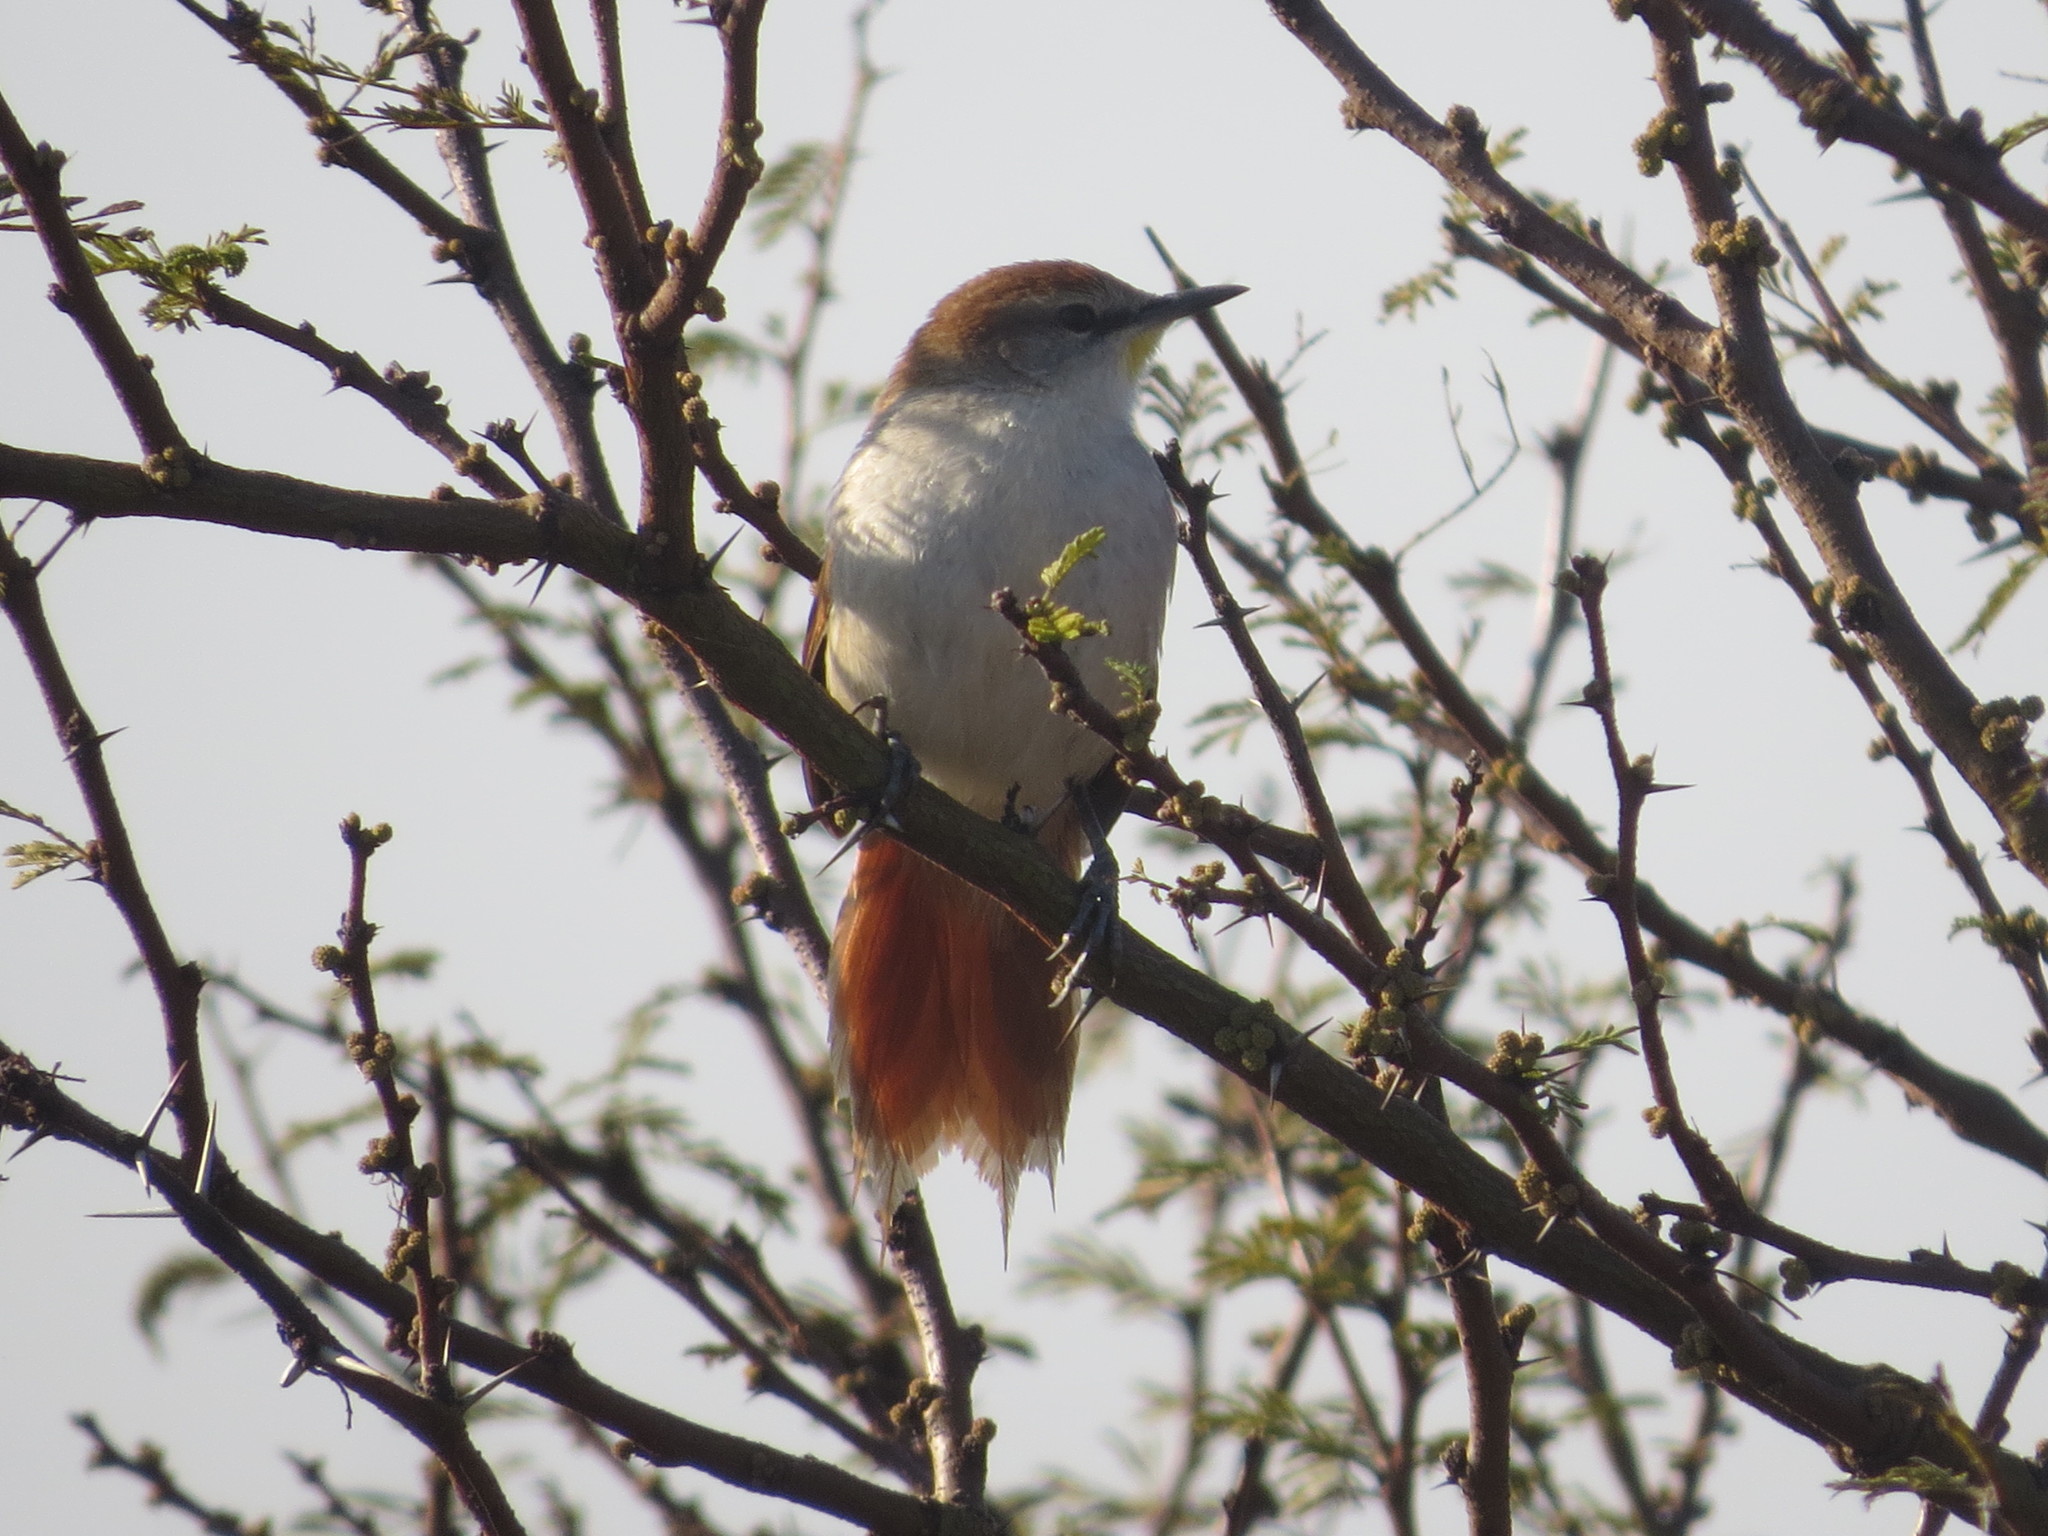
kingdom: Animalia
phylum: Chordata
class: Aves
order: Passeriformes
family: Furnariidae
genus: Certhiaxis
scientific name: Certhiaxis cinnamomeus
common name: Yellow-chinned spinetail
